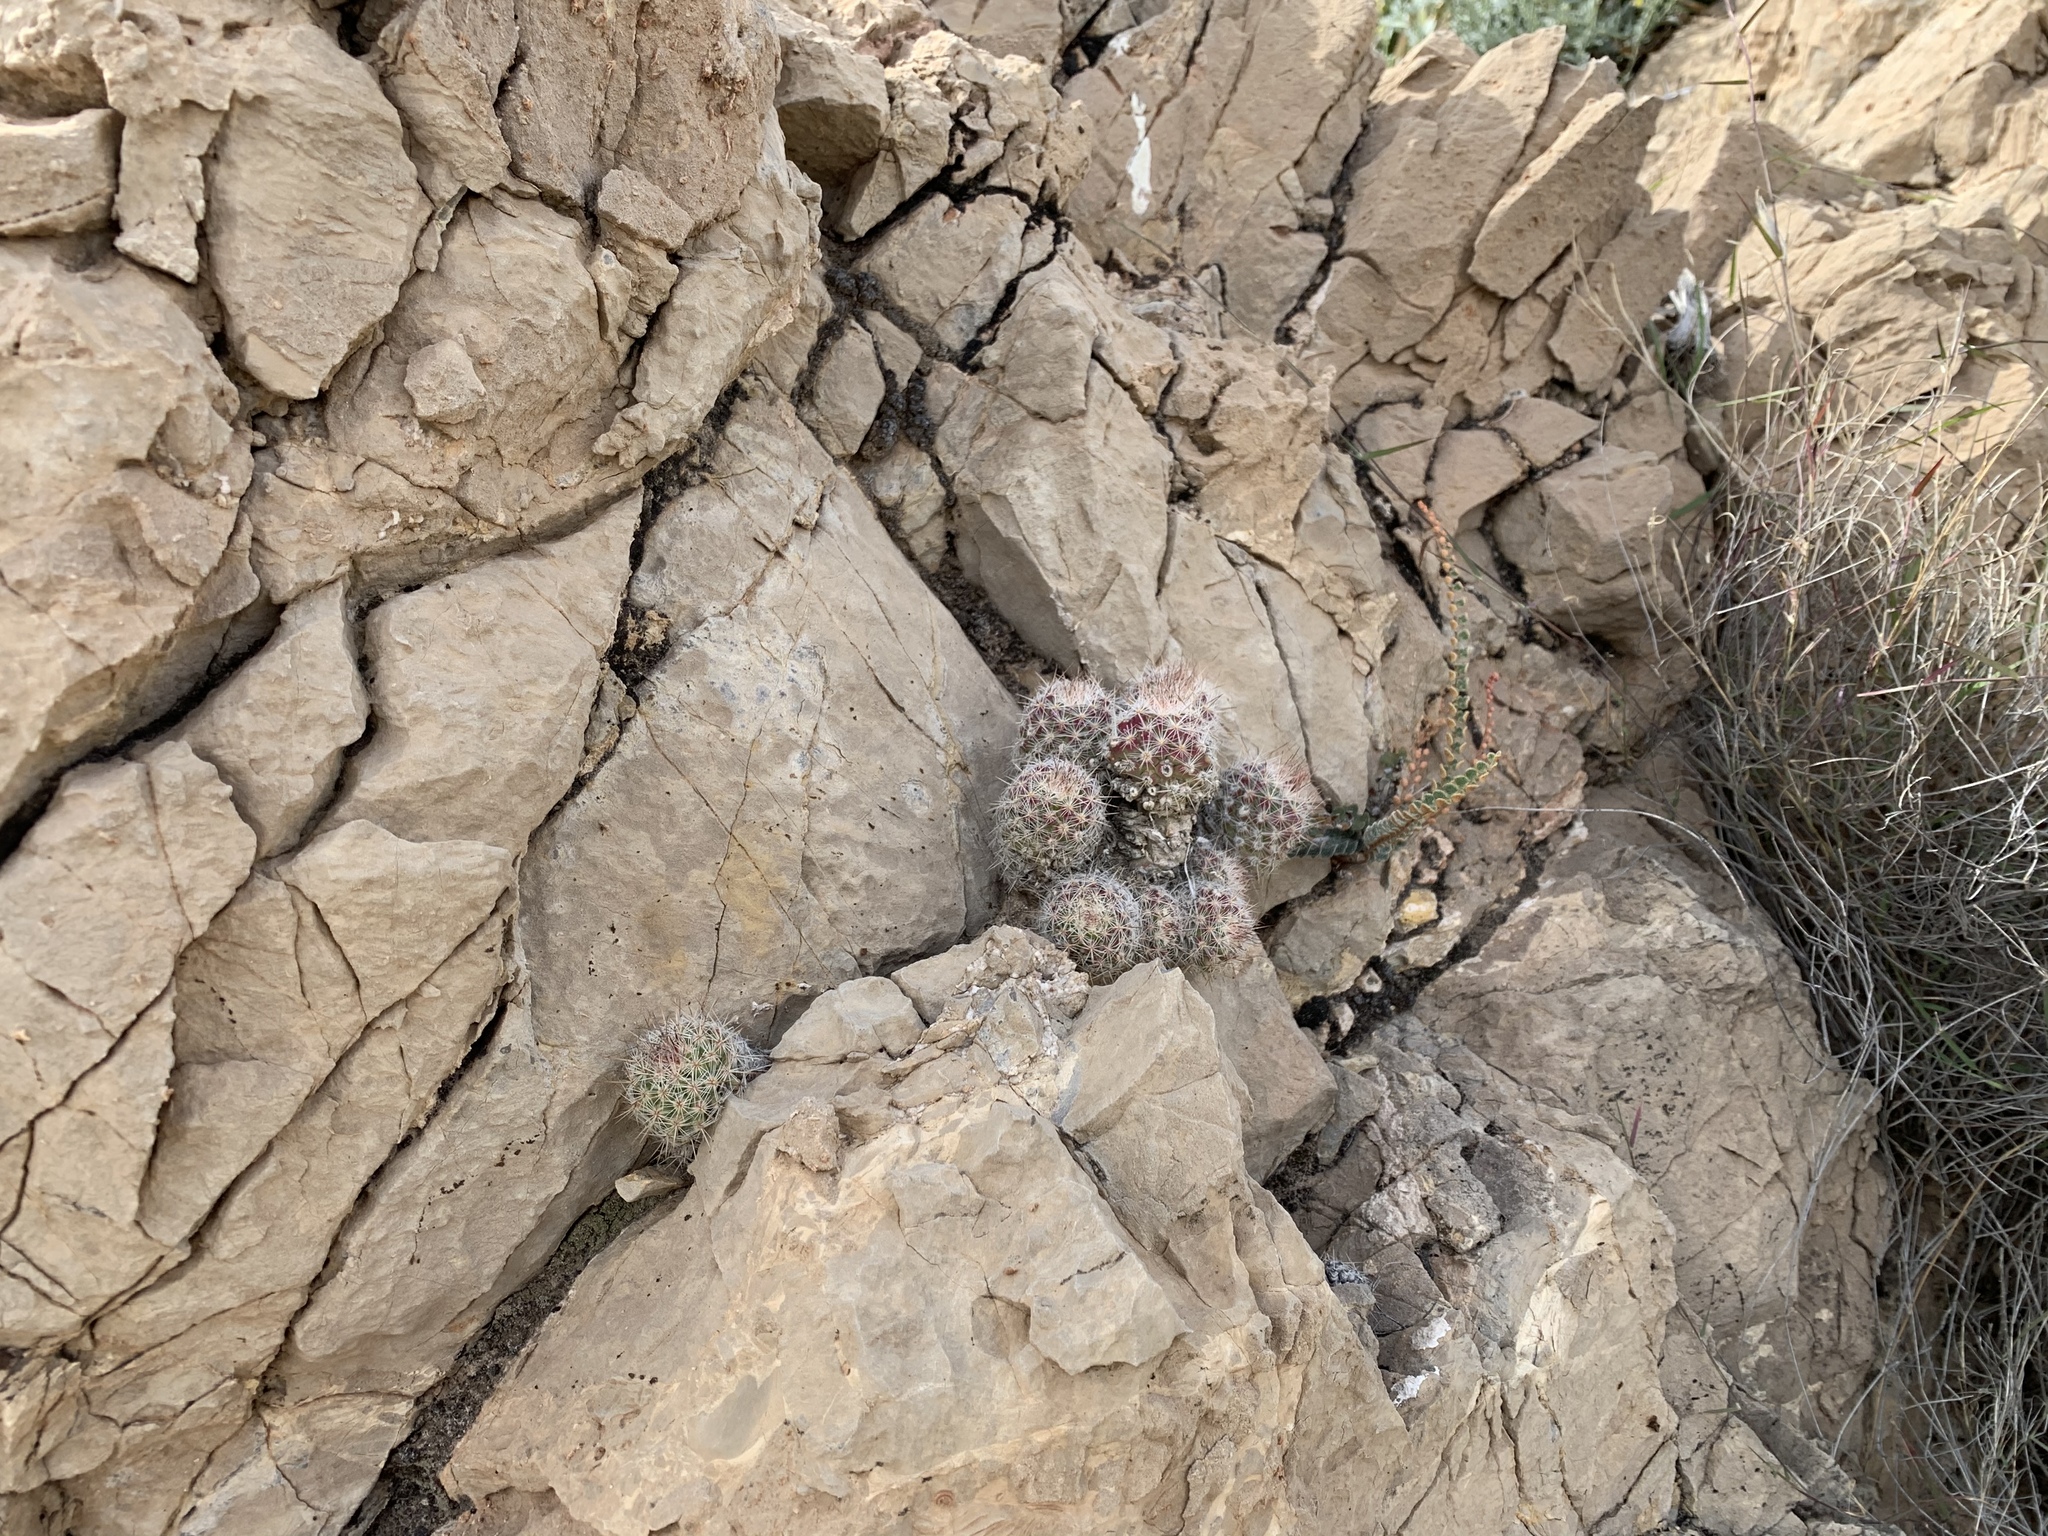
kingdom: Plantae
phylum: Tracheophyta
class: Magnoliopsida
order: Caryophyllales
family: Cactaceae
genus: Pelecyphora
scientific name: Pelecyphora tuberculosa
